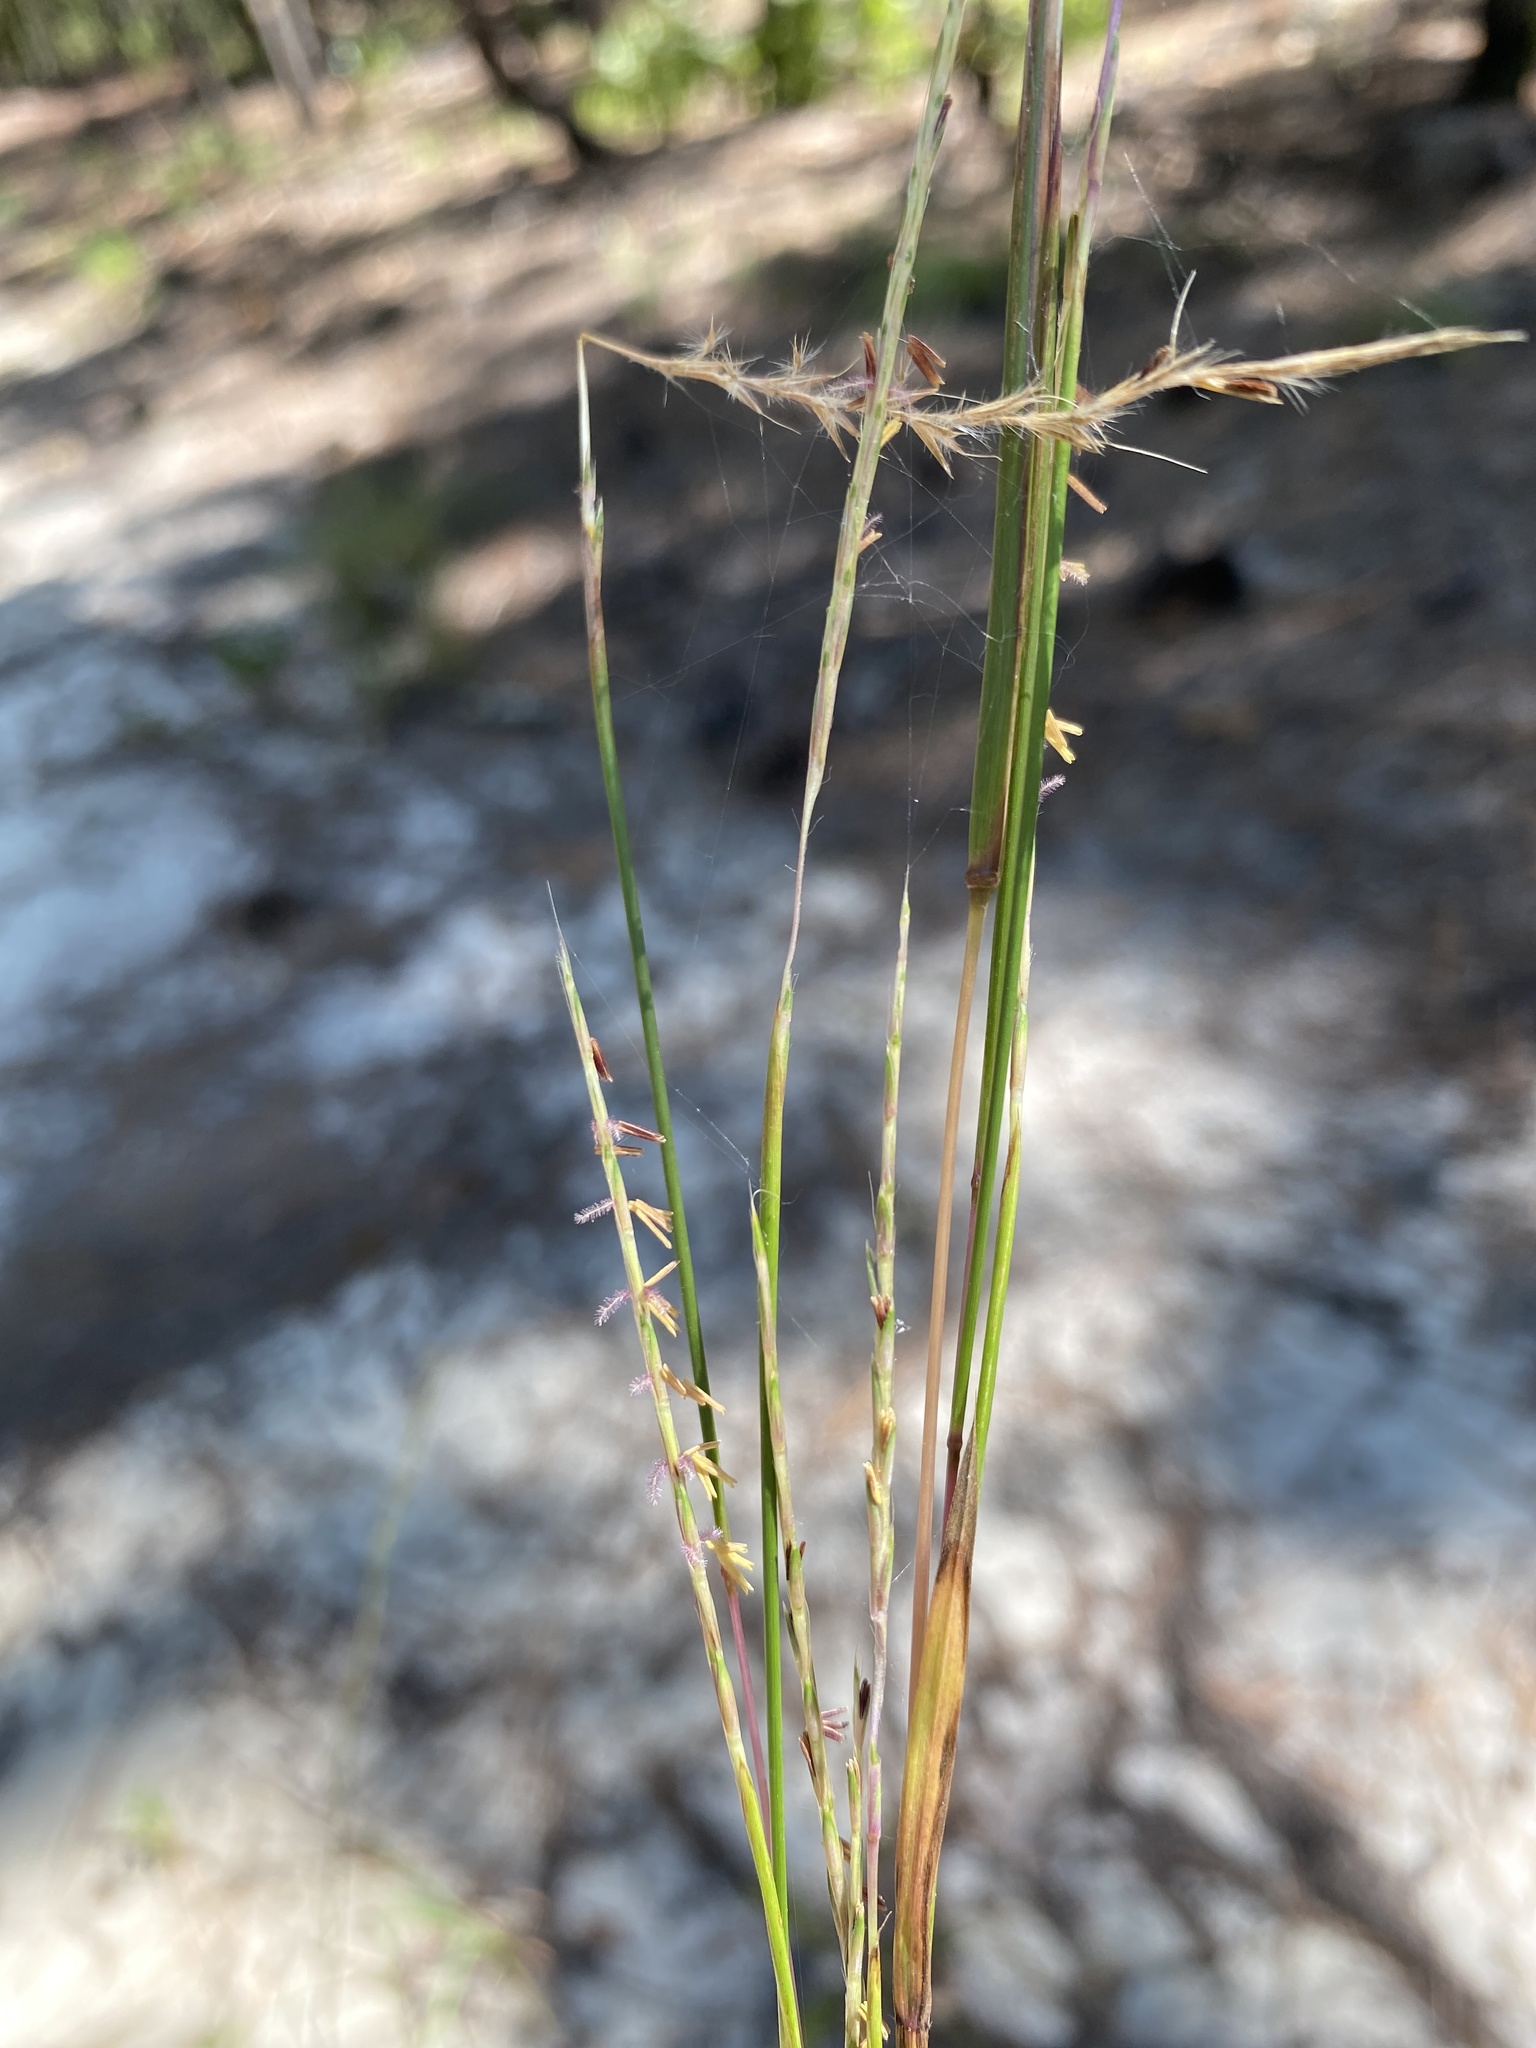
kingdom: Plantae
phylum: Tracheophyta
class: Liliopsida
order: Poales
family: Poaceae
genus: Schizachyrium
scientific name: Schizachyrium scoparium
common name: Little bluestem
